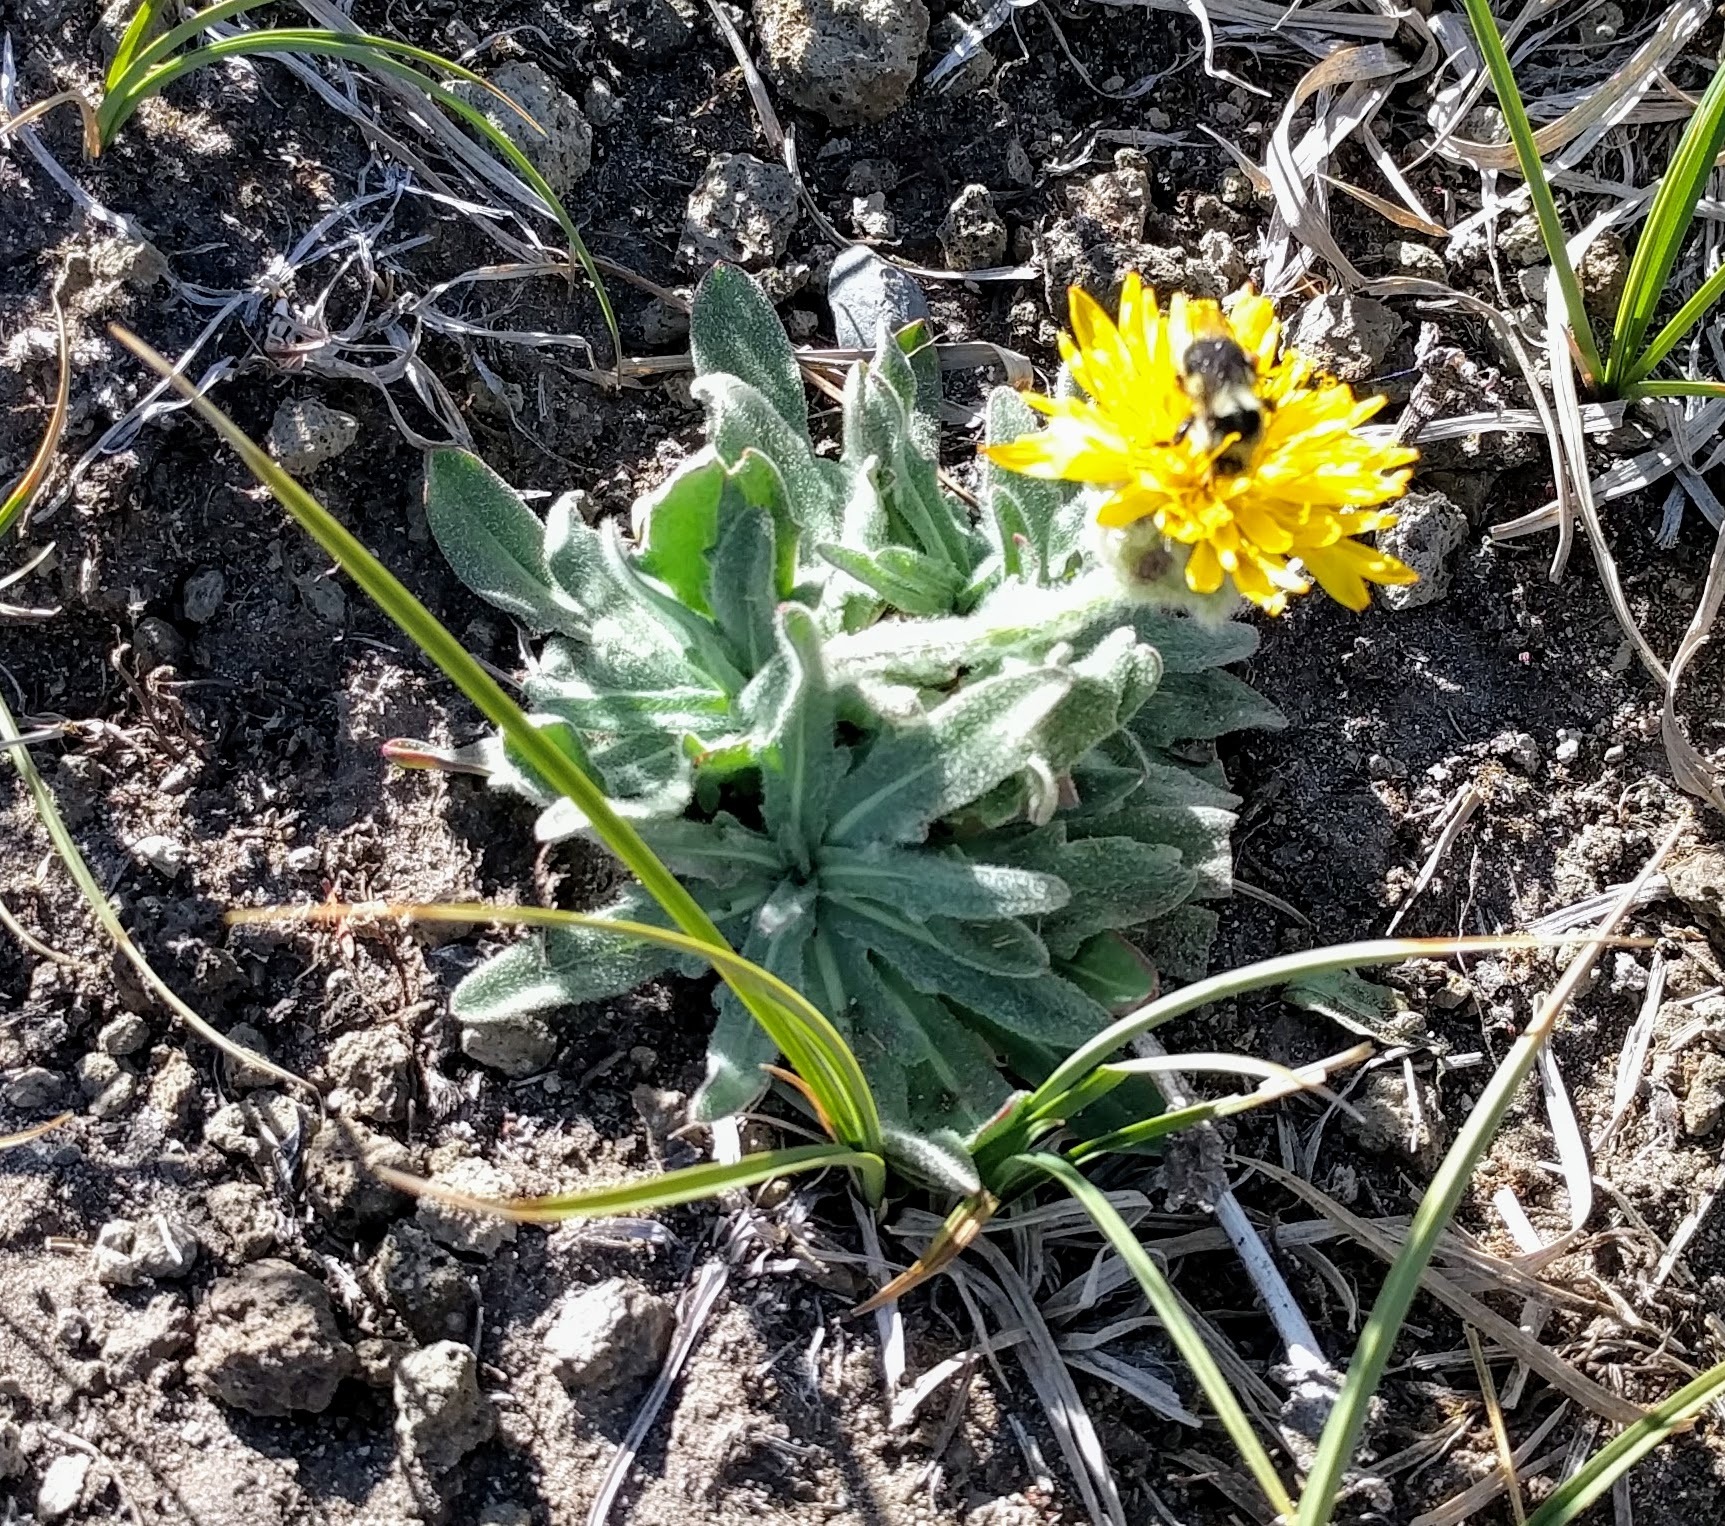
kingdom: Plantae
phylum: Tracheophyta
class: Magnoliopsida
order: Asterales
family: Asteraceae
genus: Agoseris
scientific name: Agoseris glauca
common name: Prairie agoseris
